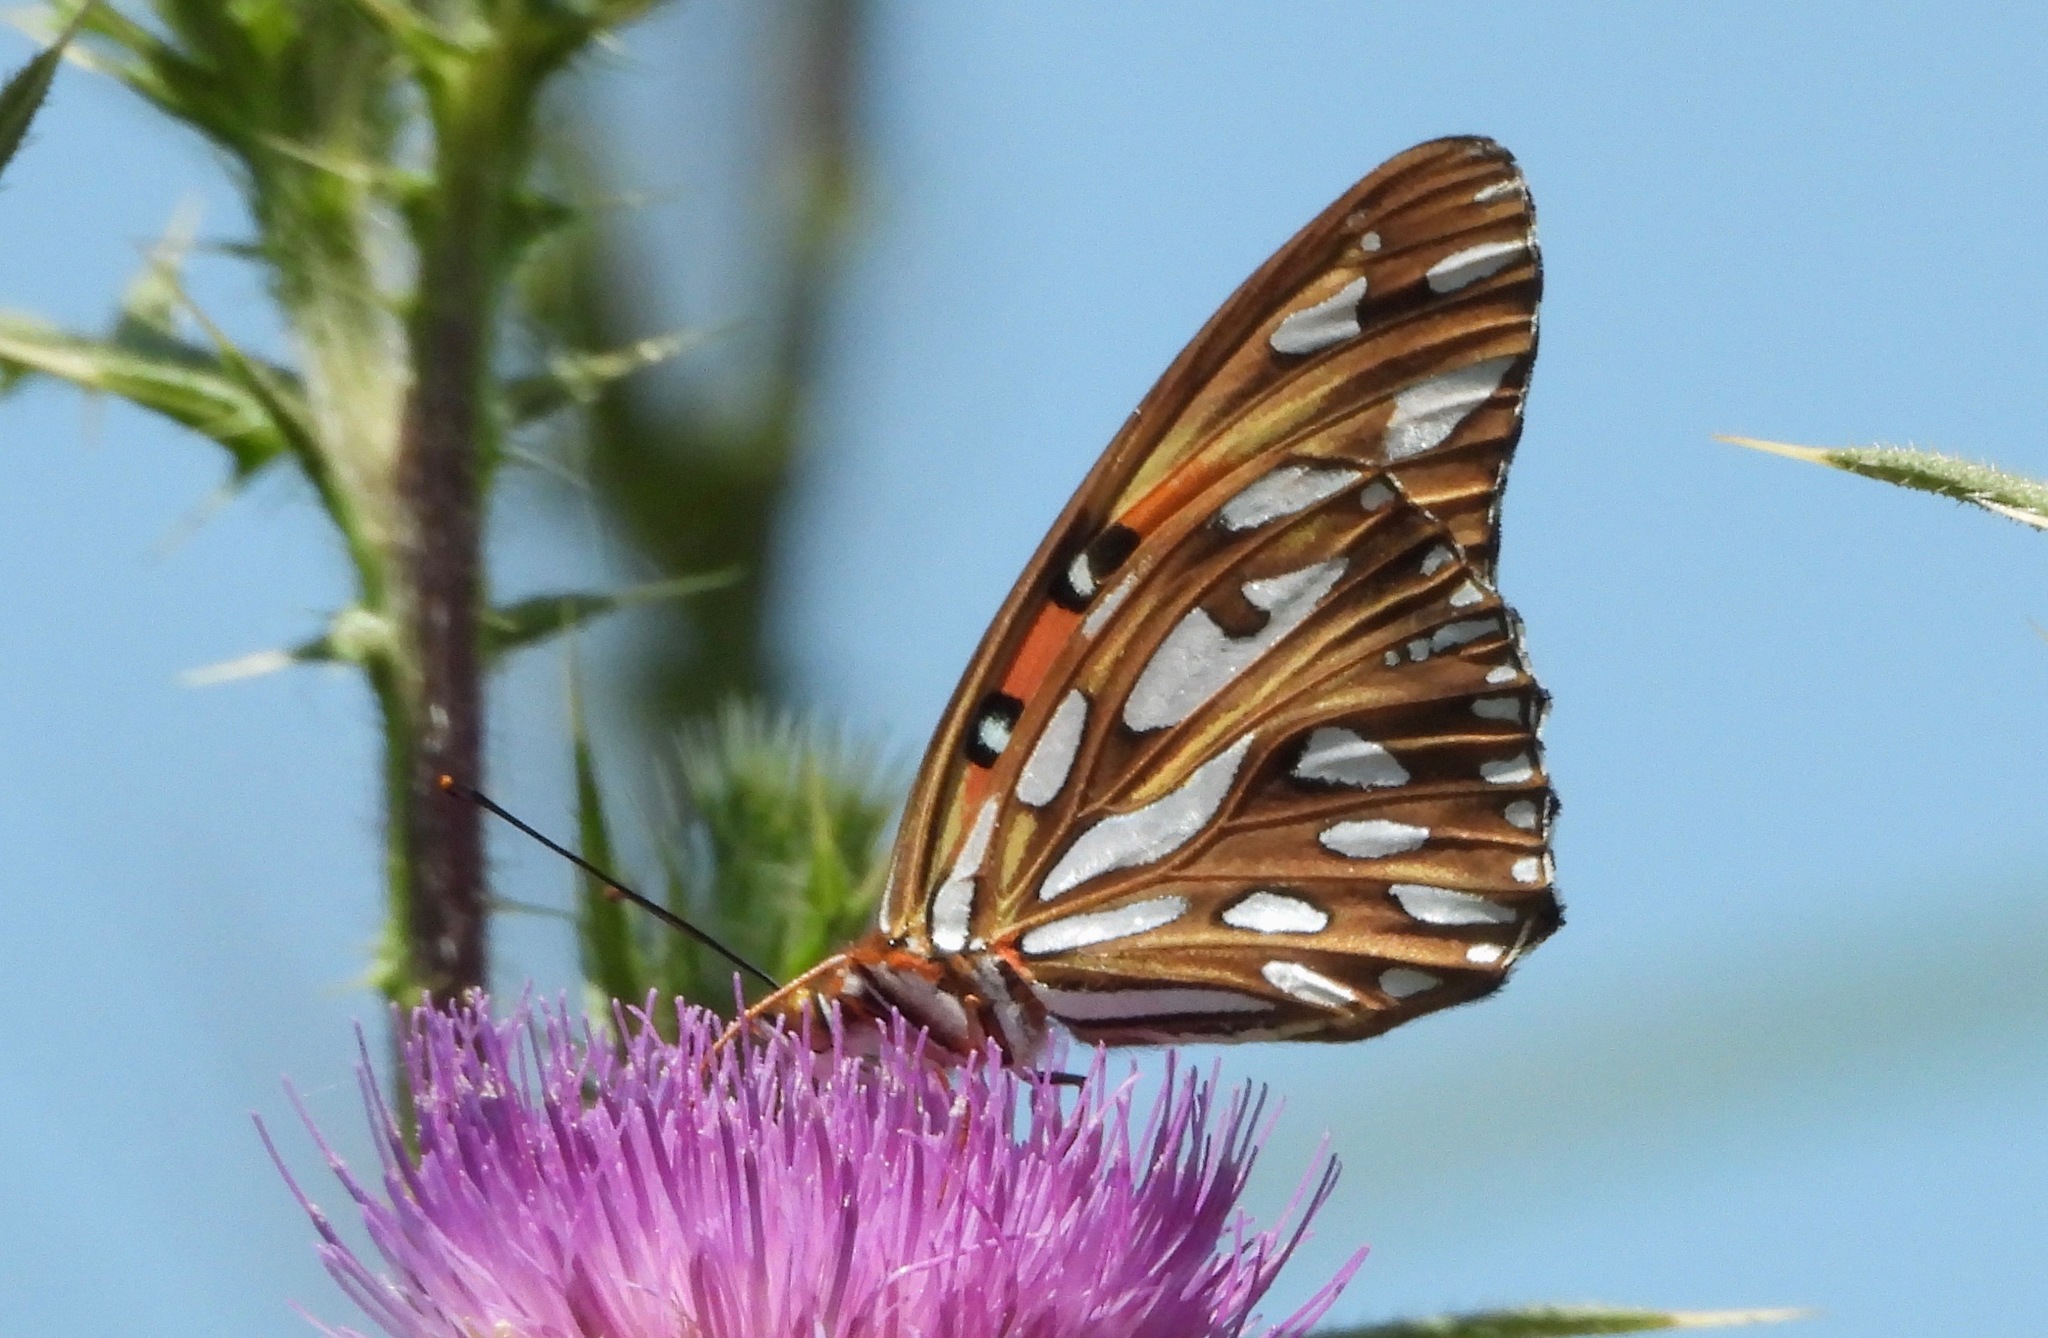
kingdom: Animalia
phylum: Arthropoda
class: Insecta
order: Lepidoptera
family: Nymphalidae
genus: Dione
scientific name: Dione vanillae
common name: Gulf fritillary
